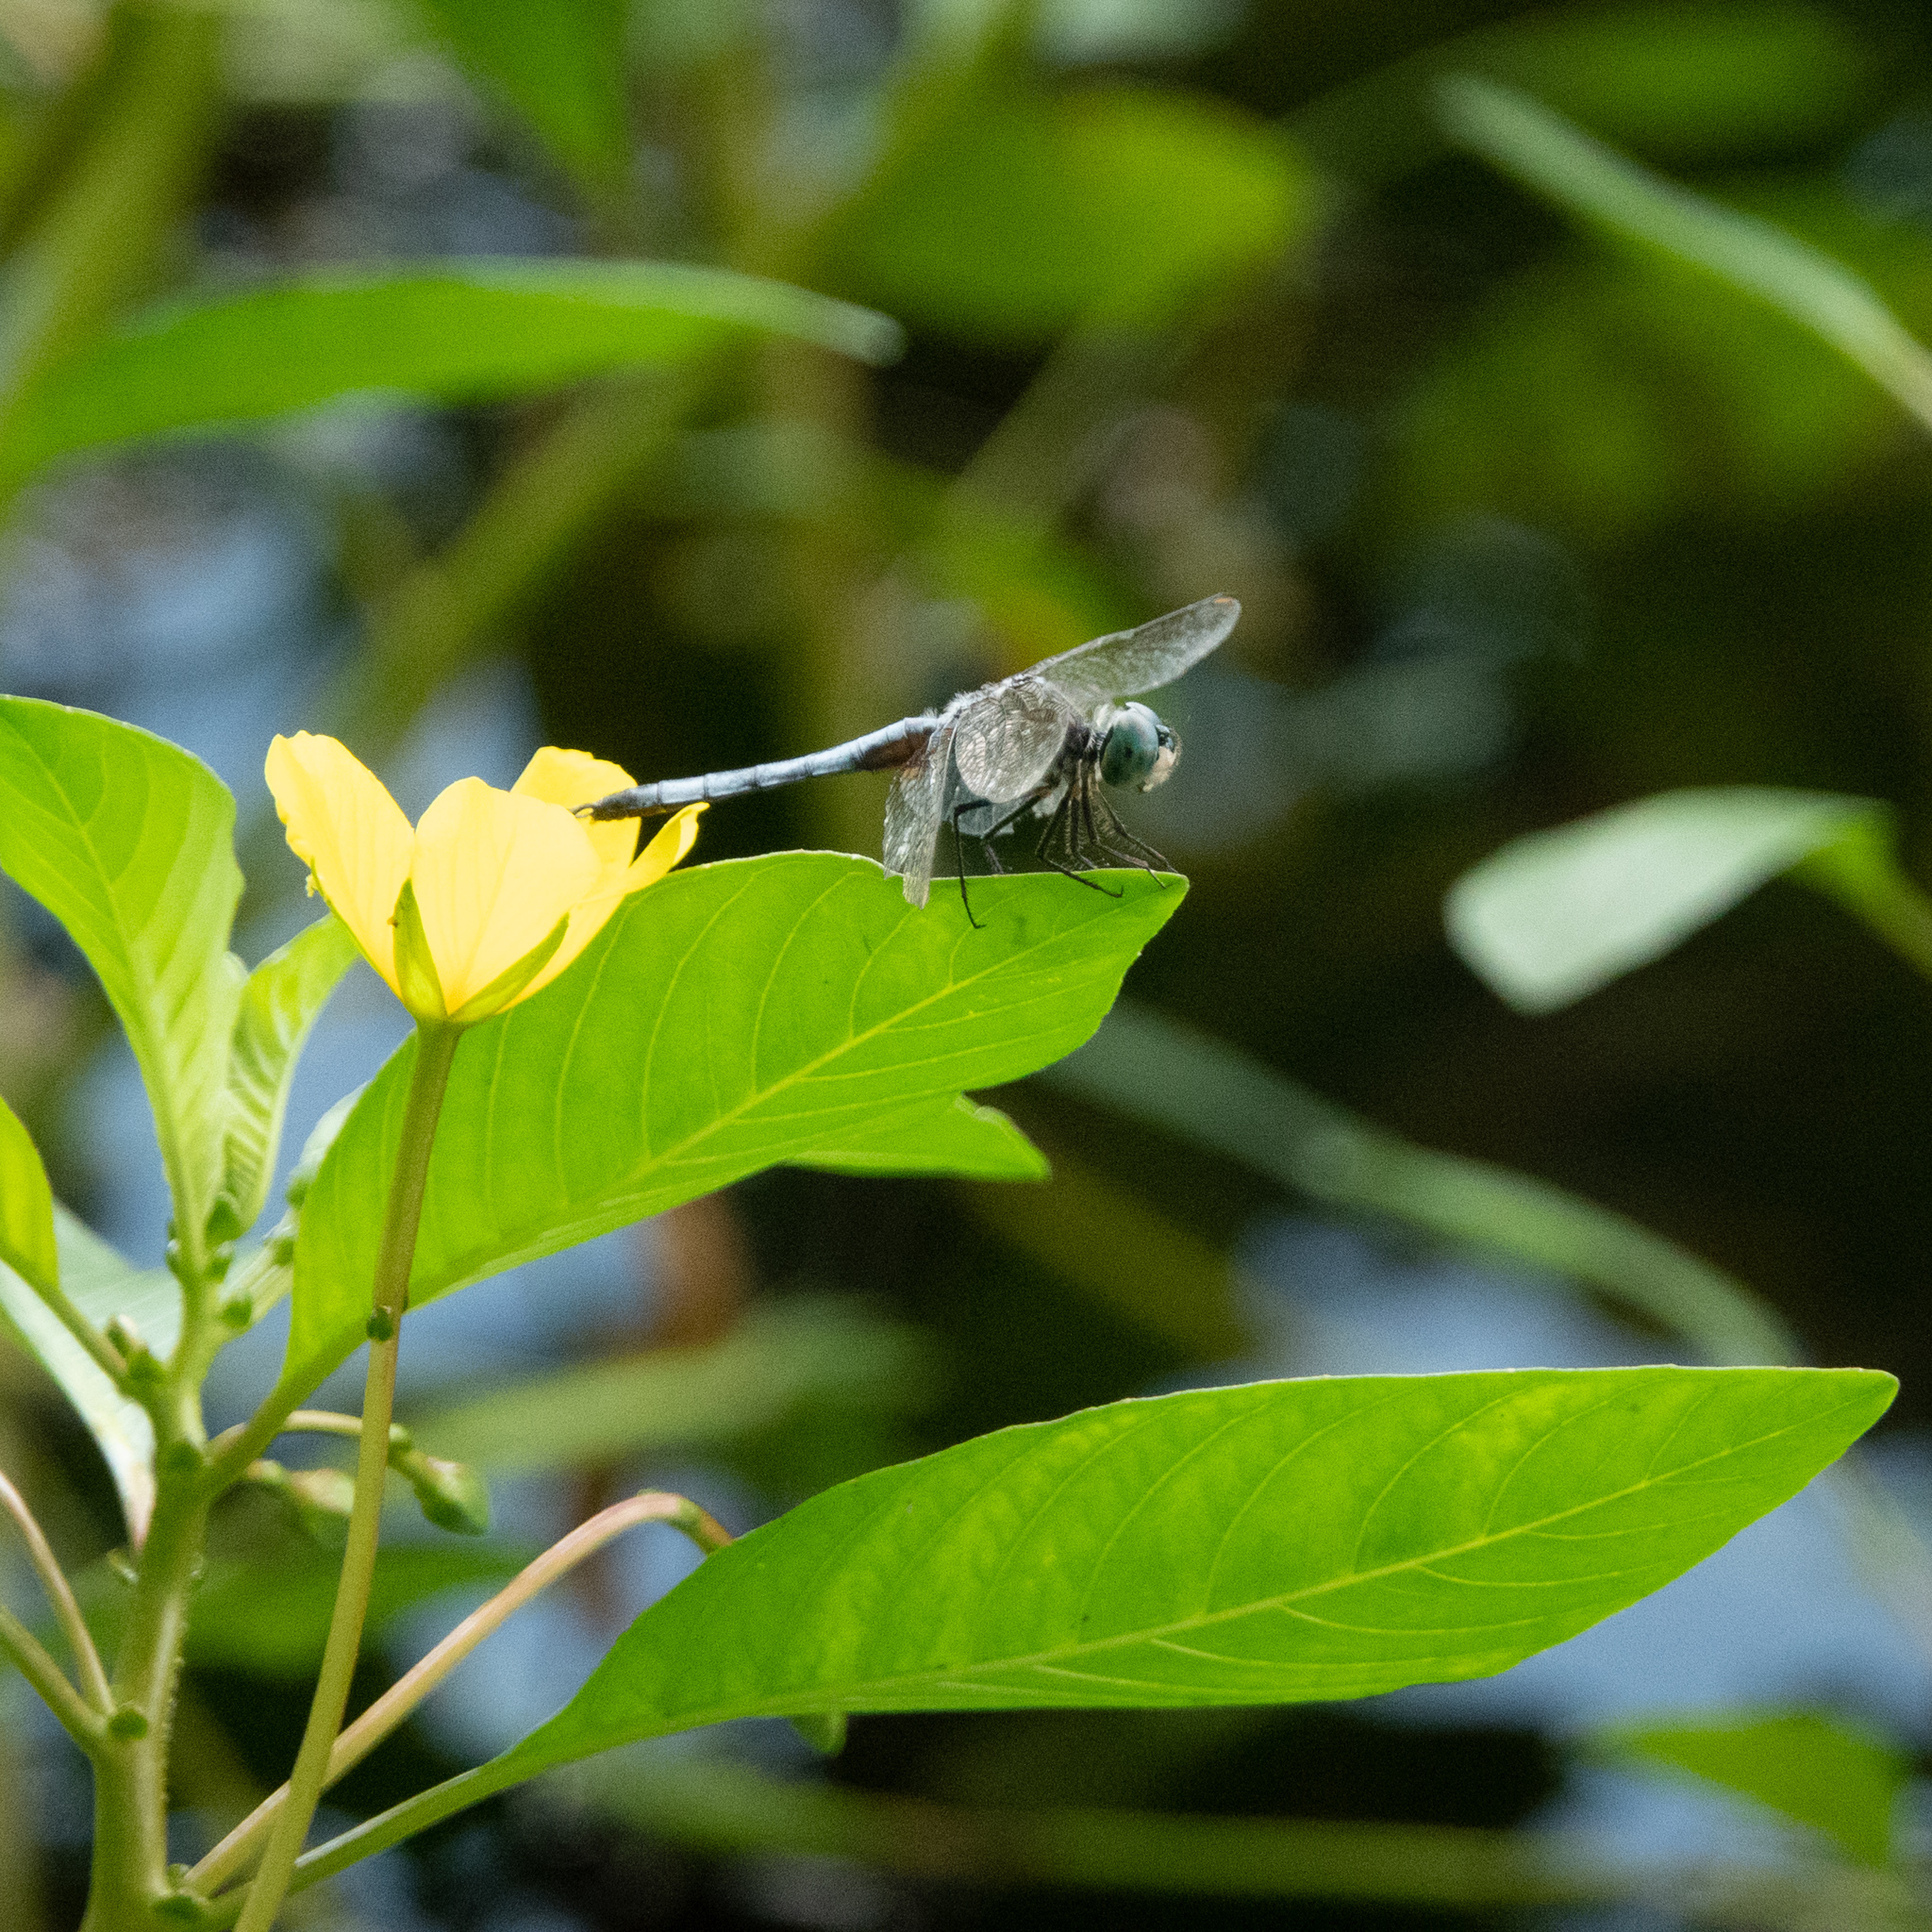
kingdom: Animalia
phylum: Arthropoda
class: Insecta
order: Odonata
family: Libellulidae
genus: Pachydiplax
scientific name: Pachydiplax longipennis
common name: Blue dasher
